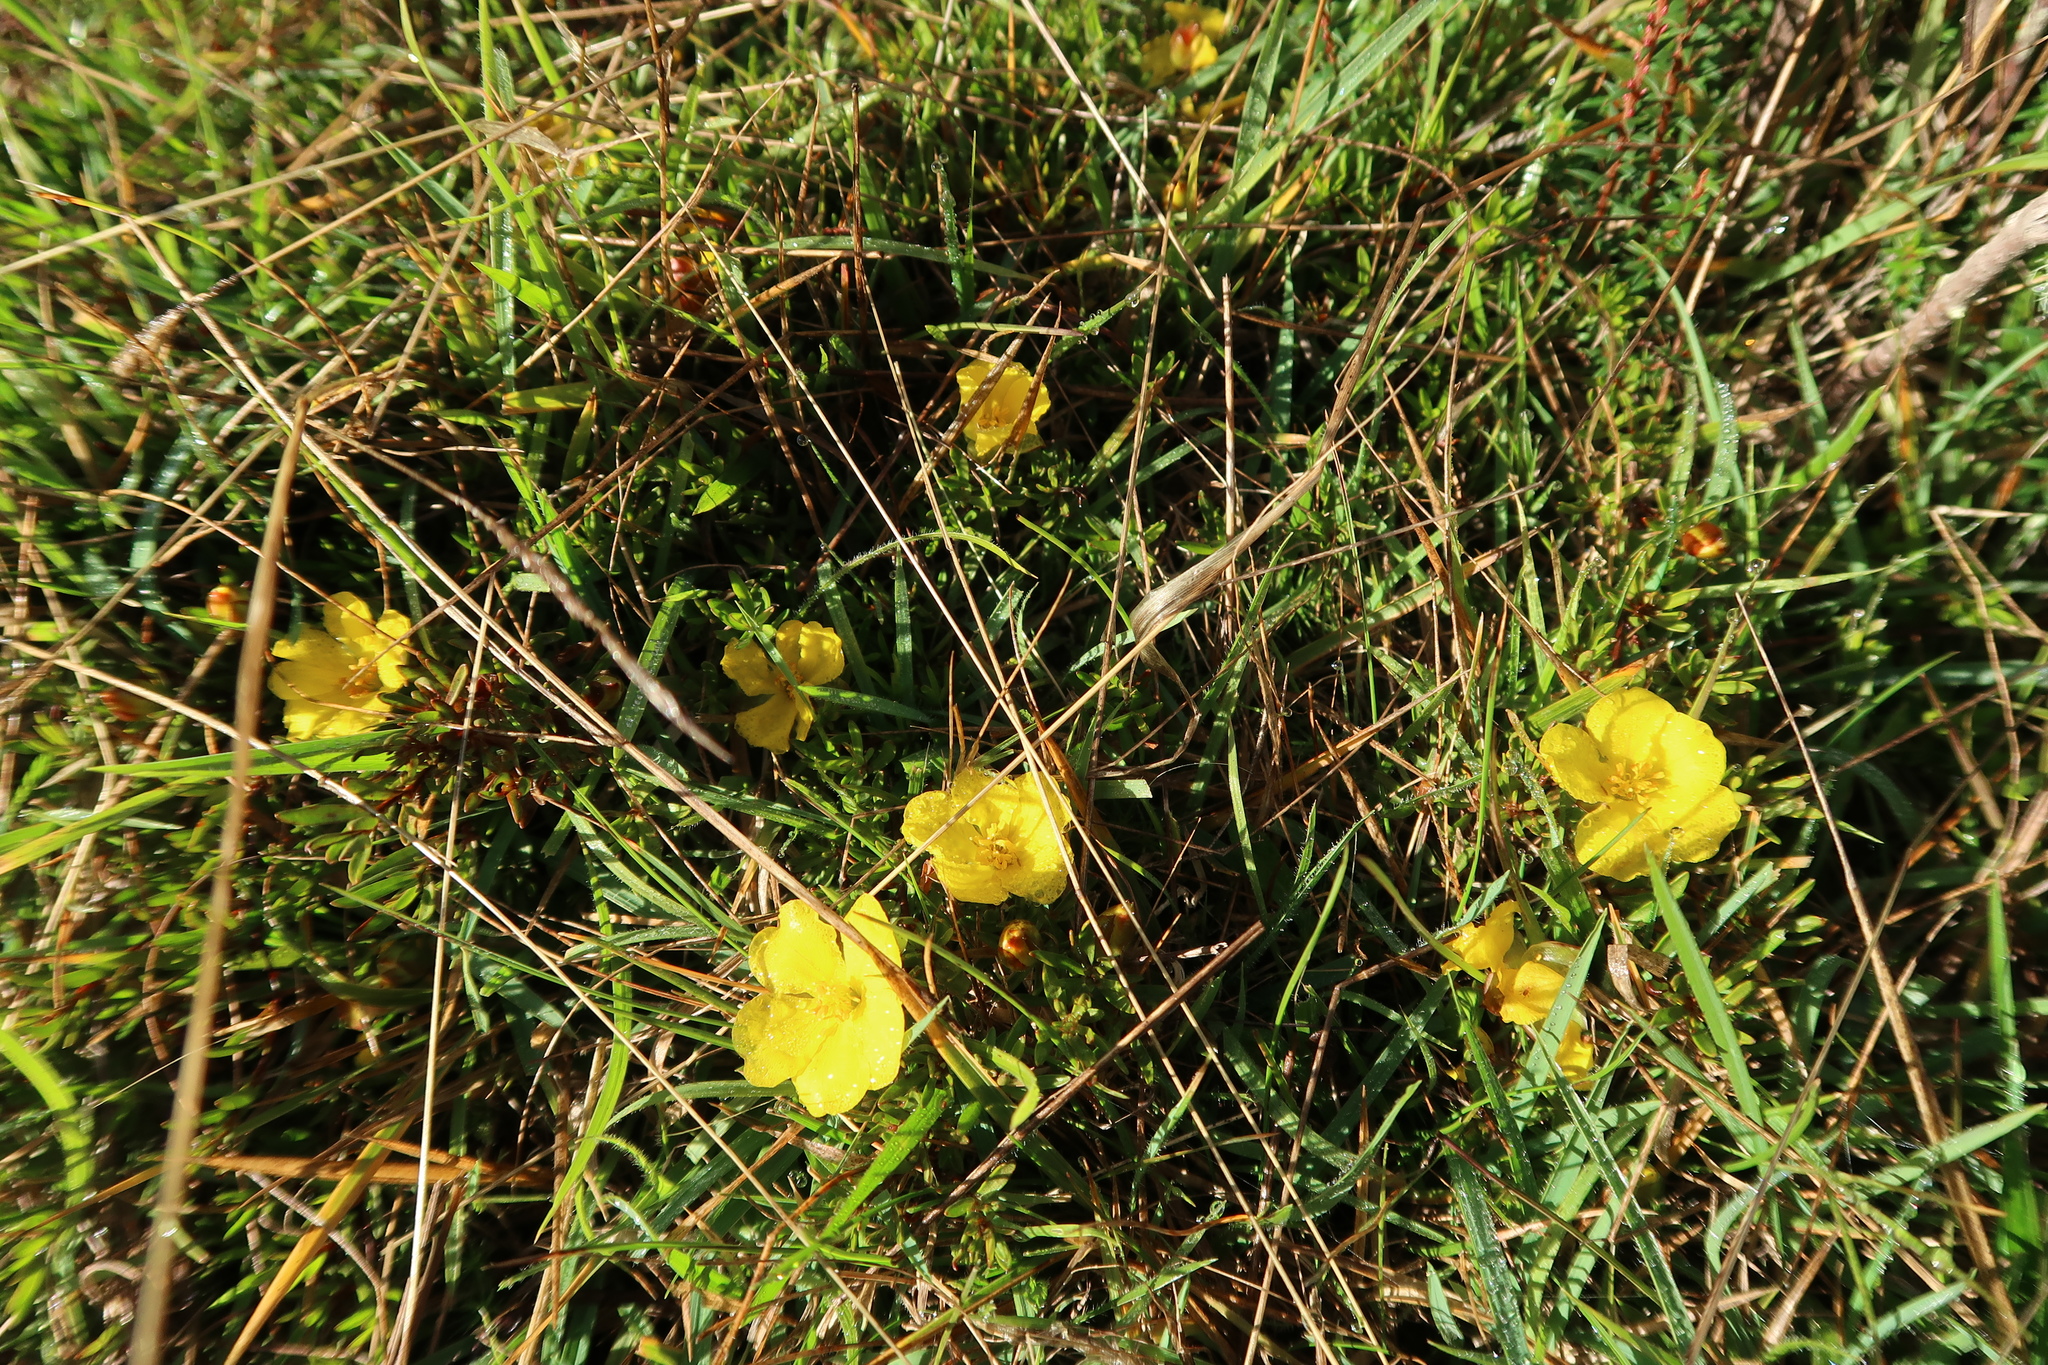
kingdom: Plantae
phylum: Tracheophyta
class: Magnoliopsida
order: Dilleniales
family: Dilleniaceae
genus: Hibbertia
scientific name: Hibbertia procumbens
